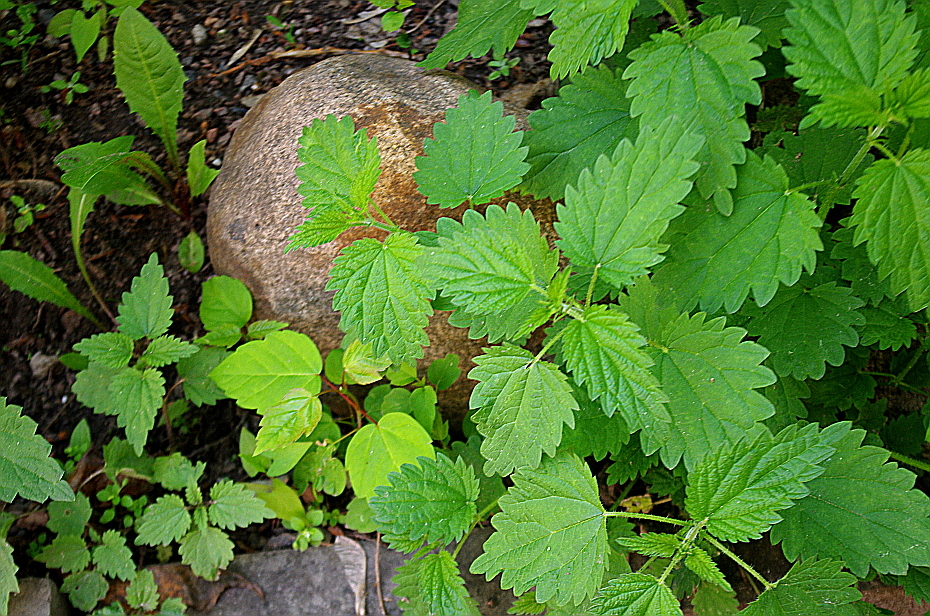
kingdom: Plantae
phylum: Tracheophyta
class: Magnoliopsida
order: Rosales
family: Urticaceae
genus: Urtica
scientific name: Urtica dioica
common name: Common nettle
